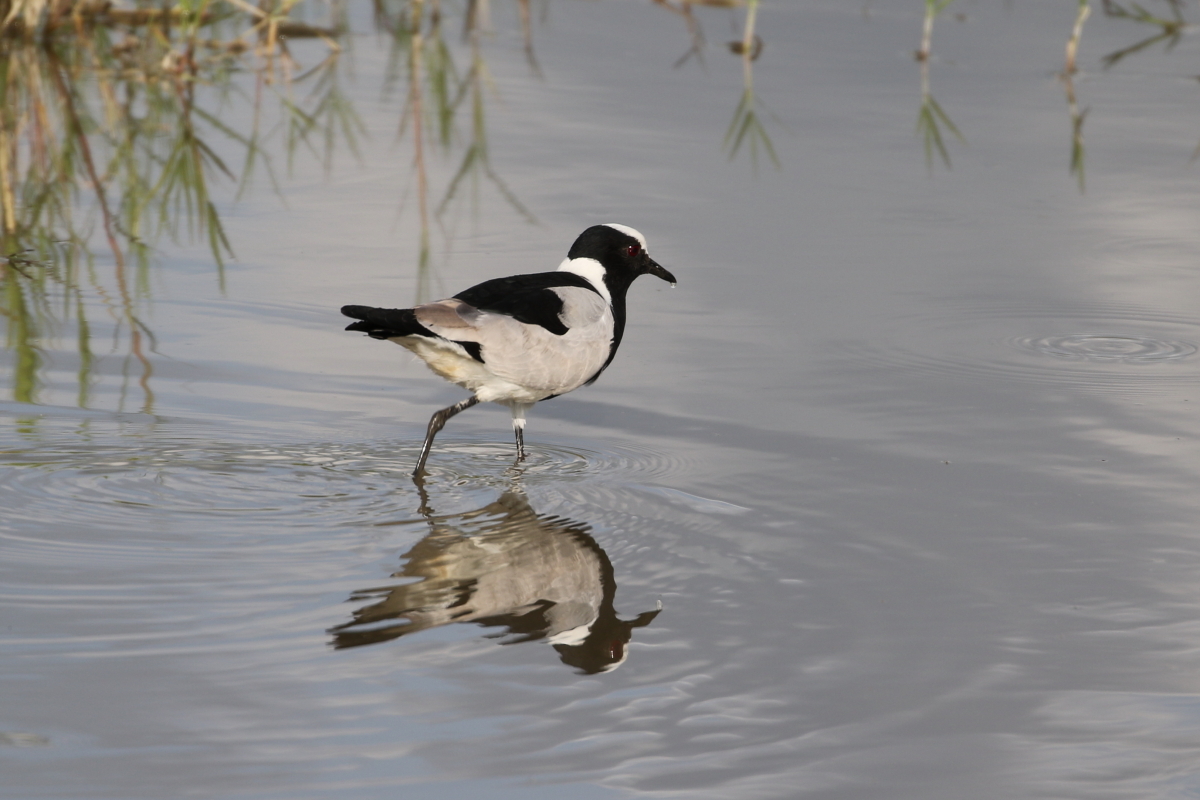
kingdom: Animalia
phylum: Chordata
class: Aves
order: Charadriiformes
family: Charadriidae
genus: Vanellus
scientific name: Vanellus armatus
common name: Blacksmith lapwing
